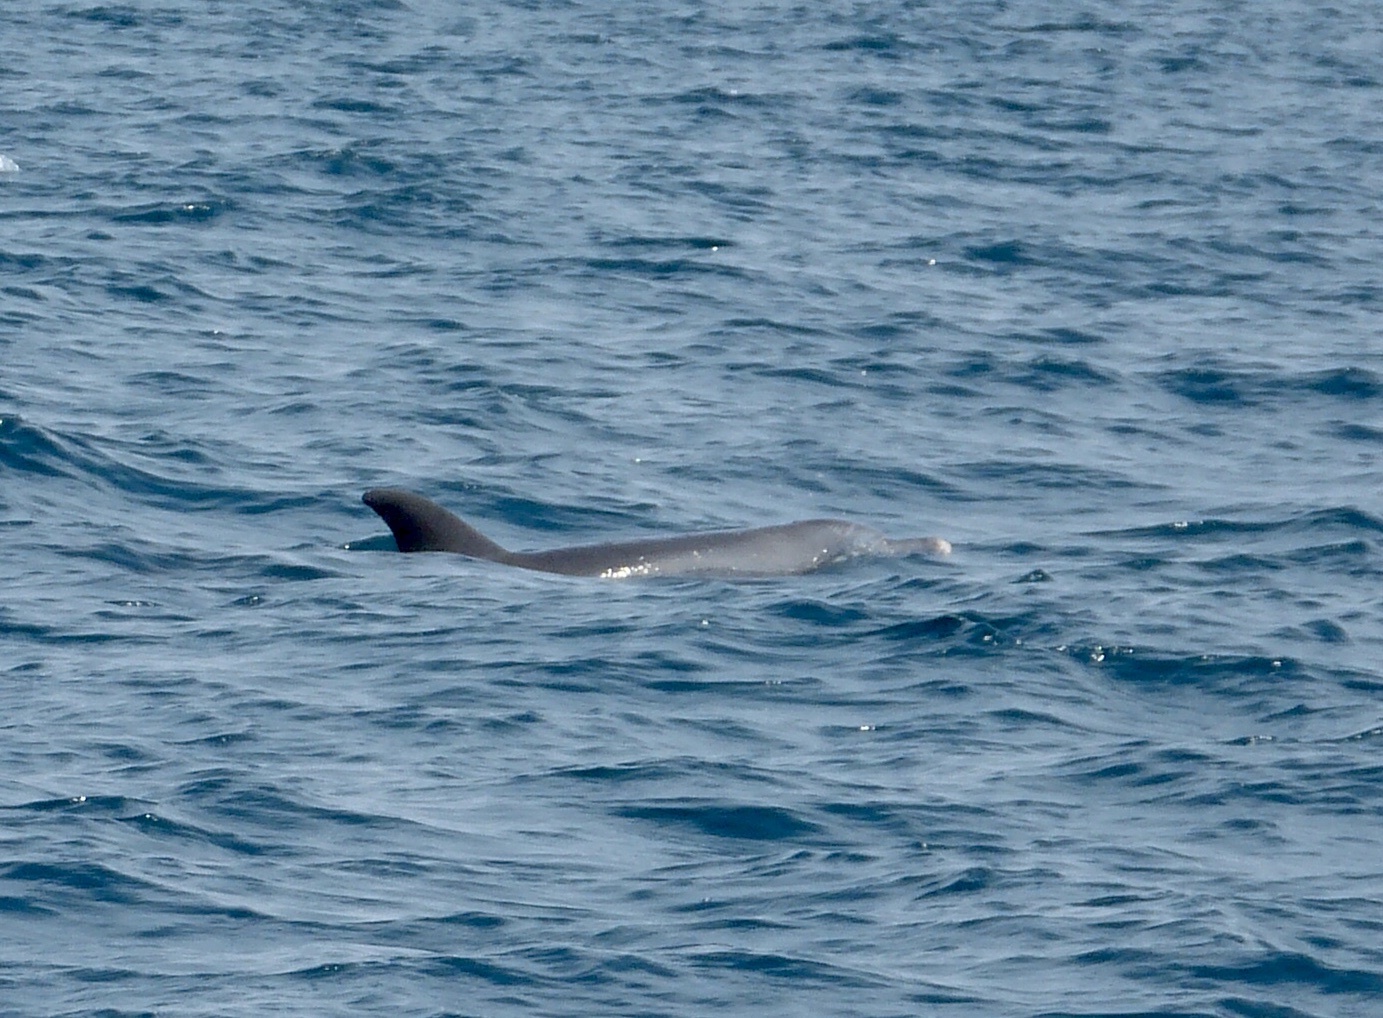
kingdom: Animalia
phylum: Chordata
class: Mammalia
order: Cetacea
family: Delphinidae
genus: Tursiops
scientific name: Tursiops aduncus
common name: Indo-pacific bottlenose dolphin
